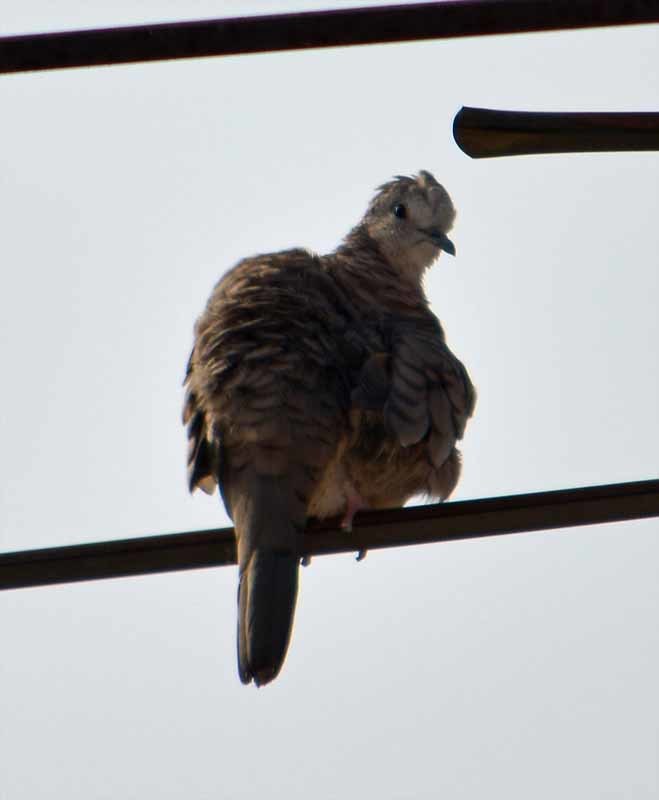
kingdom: Animalia
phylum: Chordata
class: Aves
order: Columbiformes
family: Columbidae
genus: Columbina
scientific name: Columbina inca
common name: Inca dove
